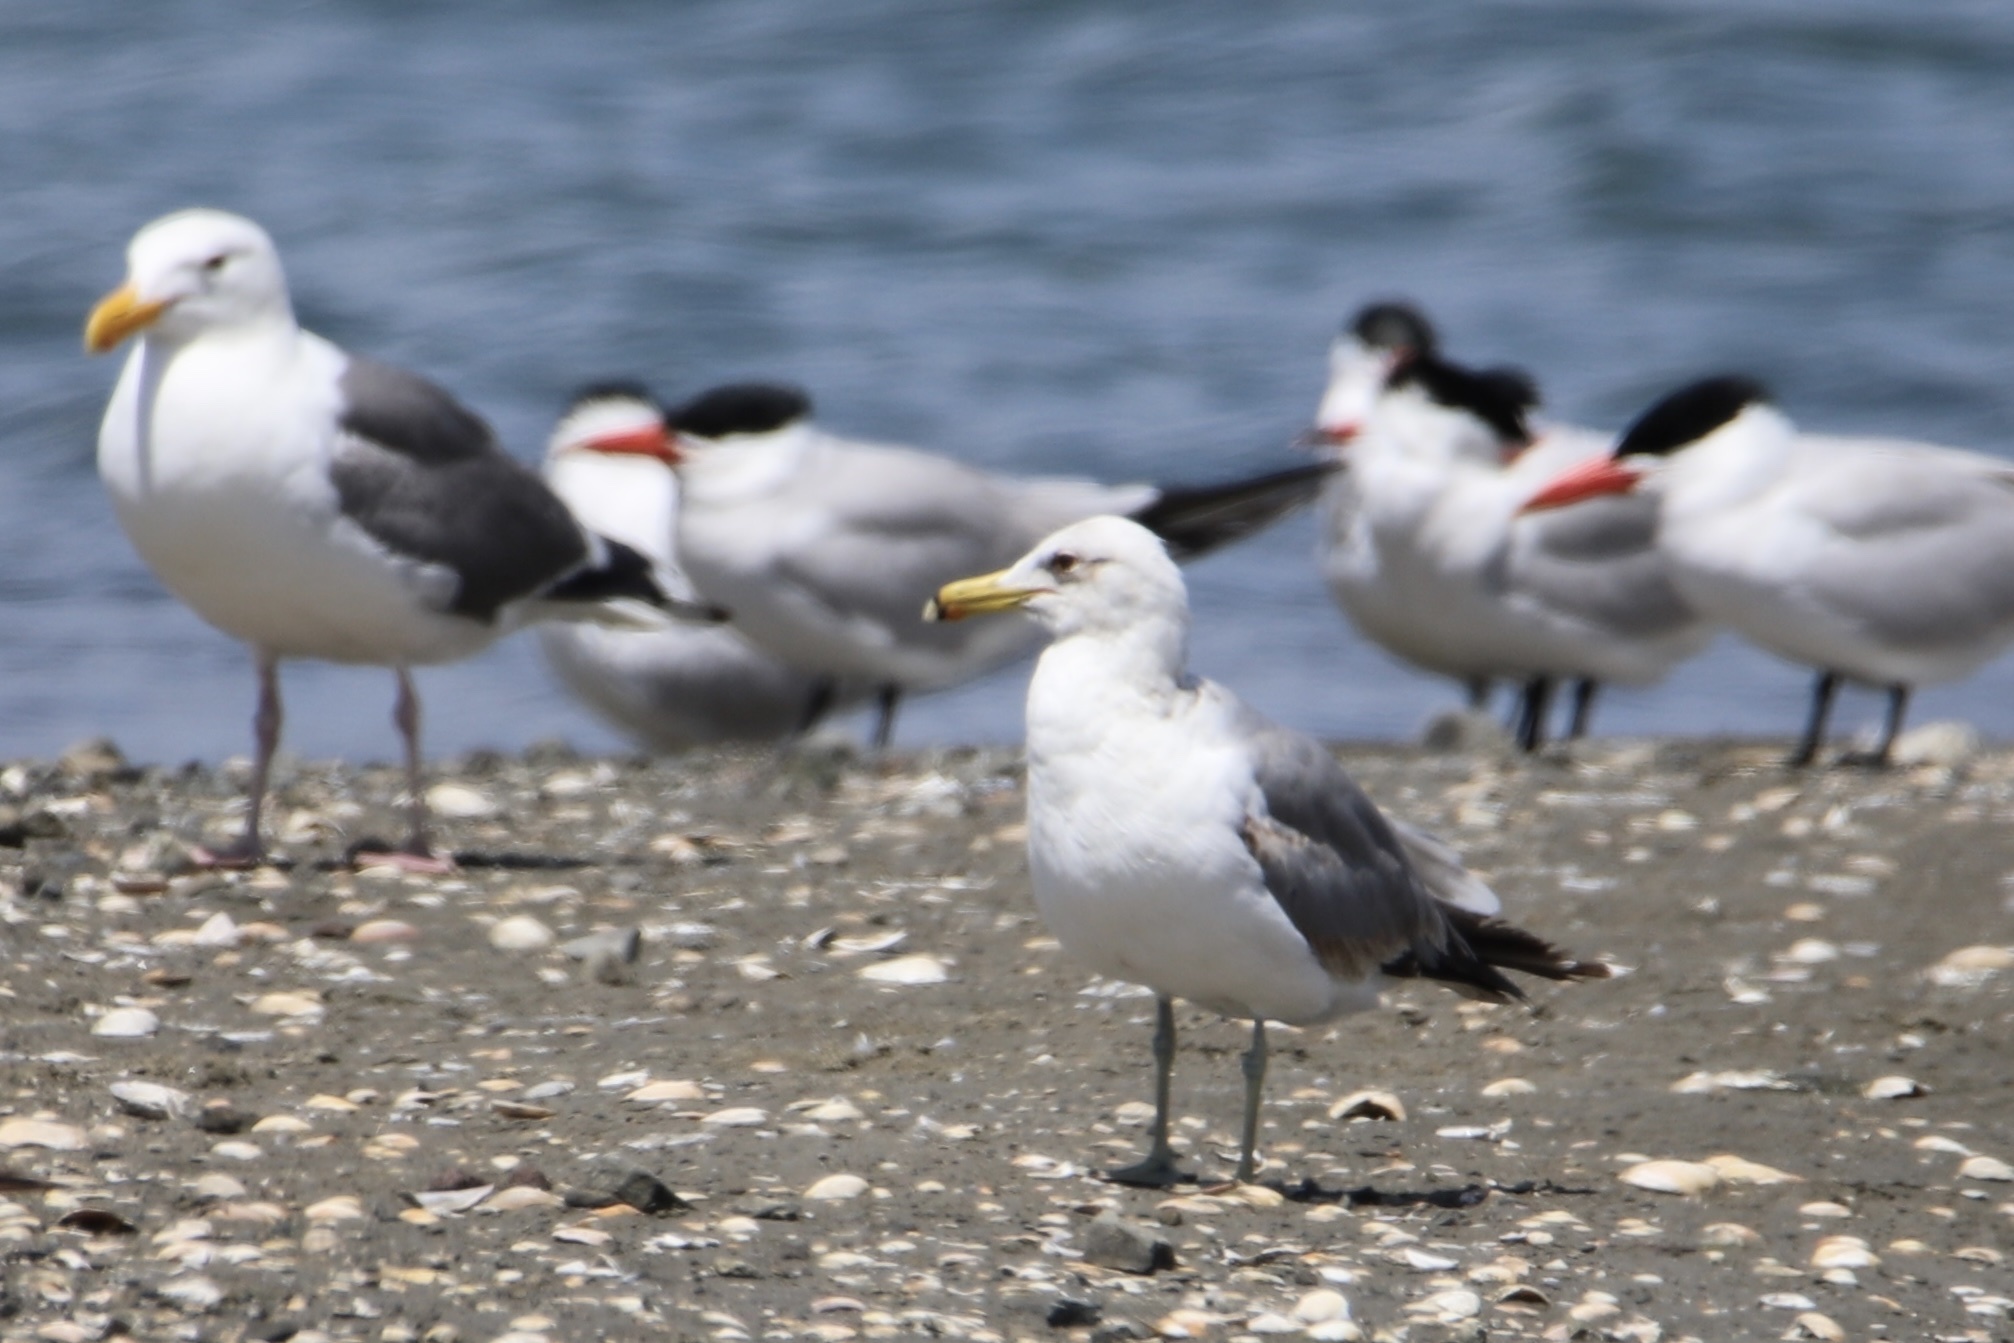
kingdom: Animalia
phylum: Chordata
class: Aves
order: Charadriiformes
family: Laridae
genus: Larus
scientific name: Larus californicus
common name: California gull
